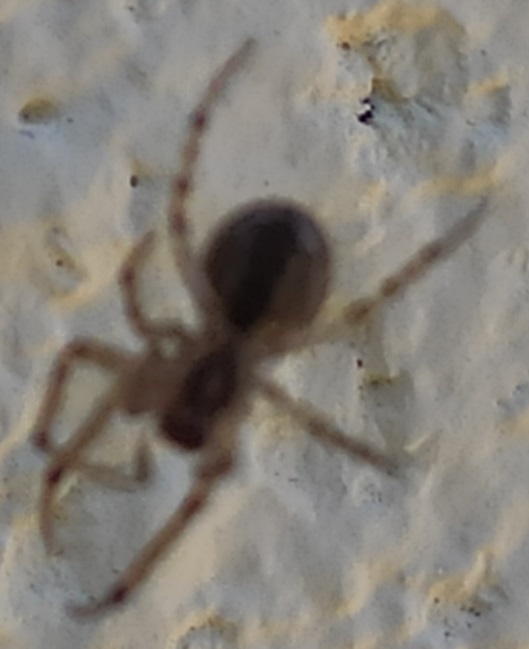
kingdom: Animalia
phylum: Arthropoda
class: Arachnida
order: Araneae
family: Araneidae
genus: Zygiella
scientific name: Zygiella x-notata
